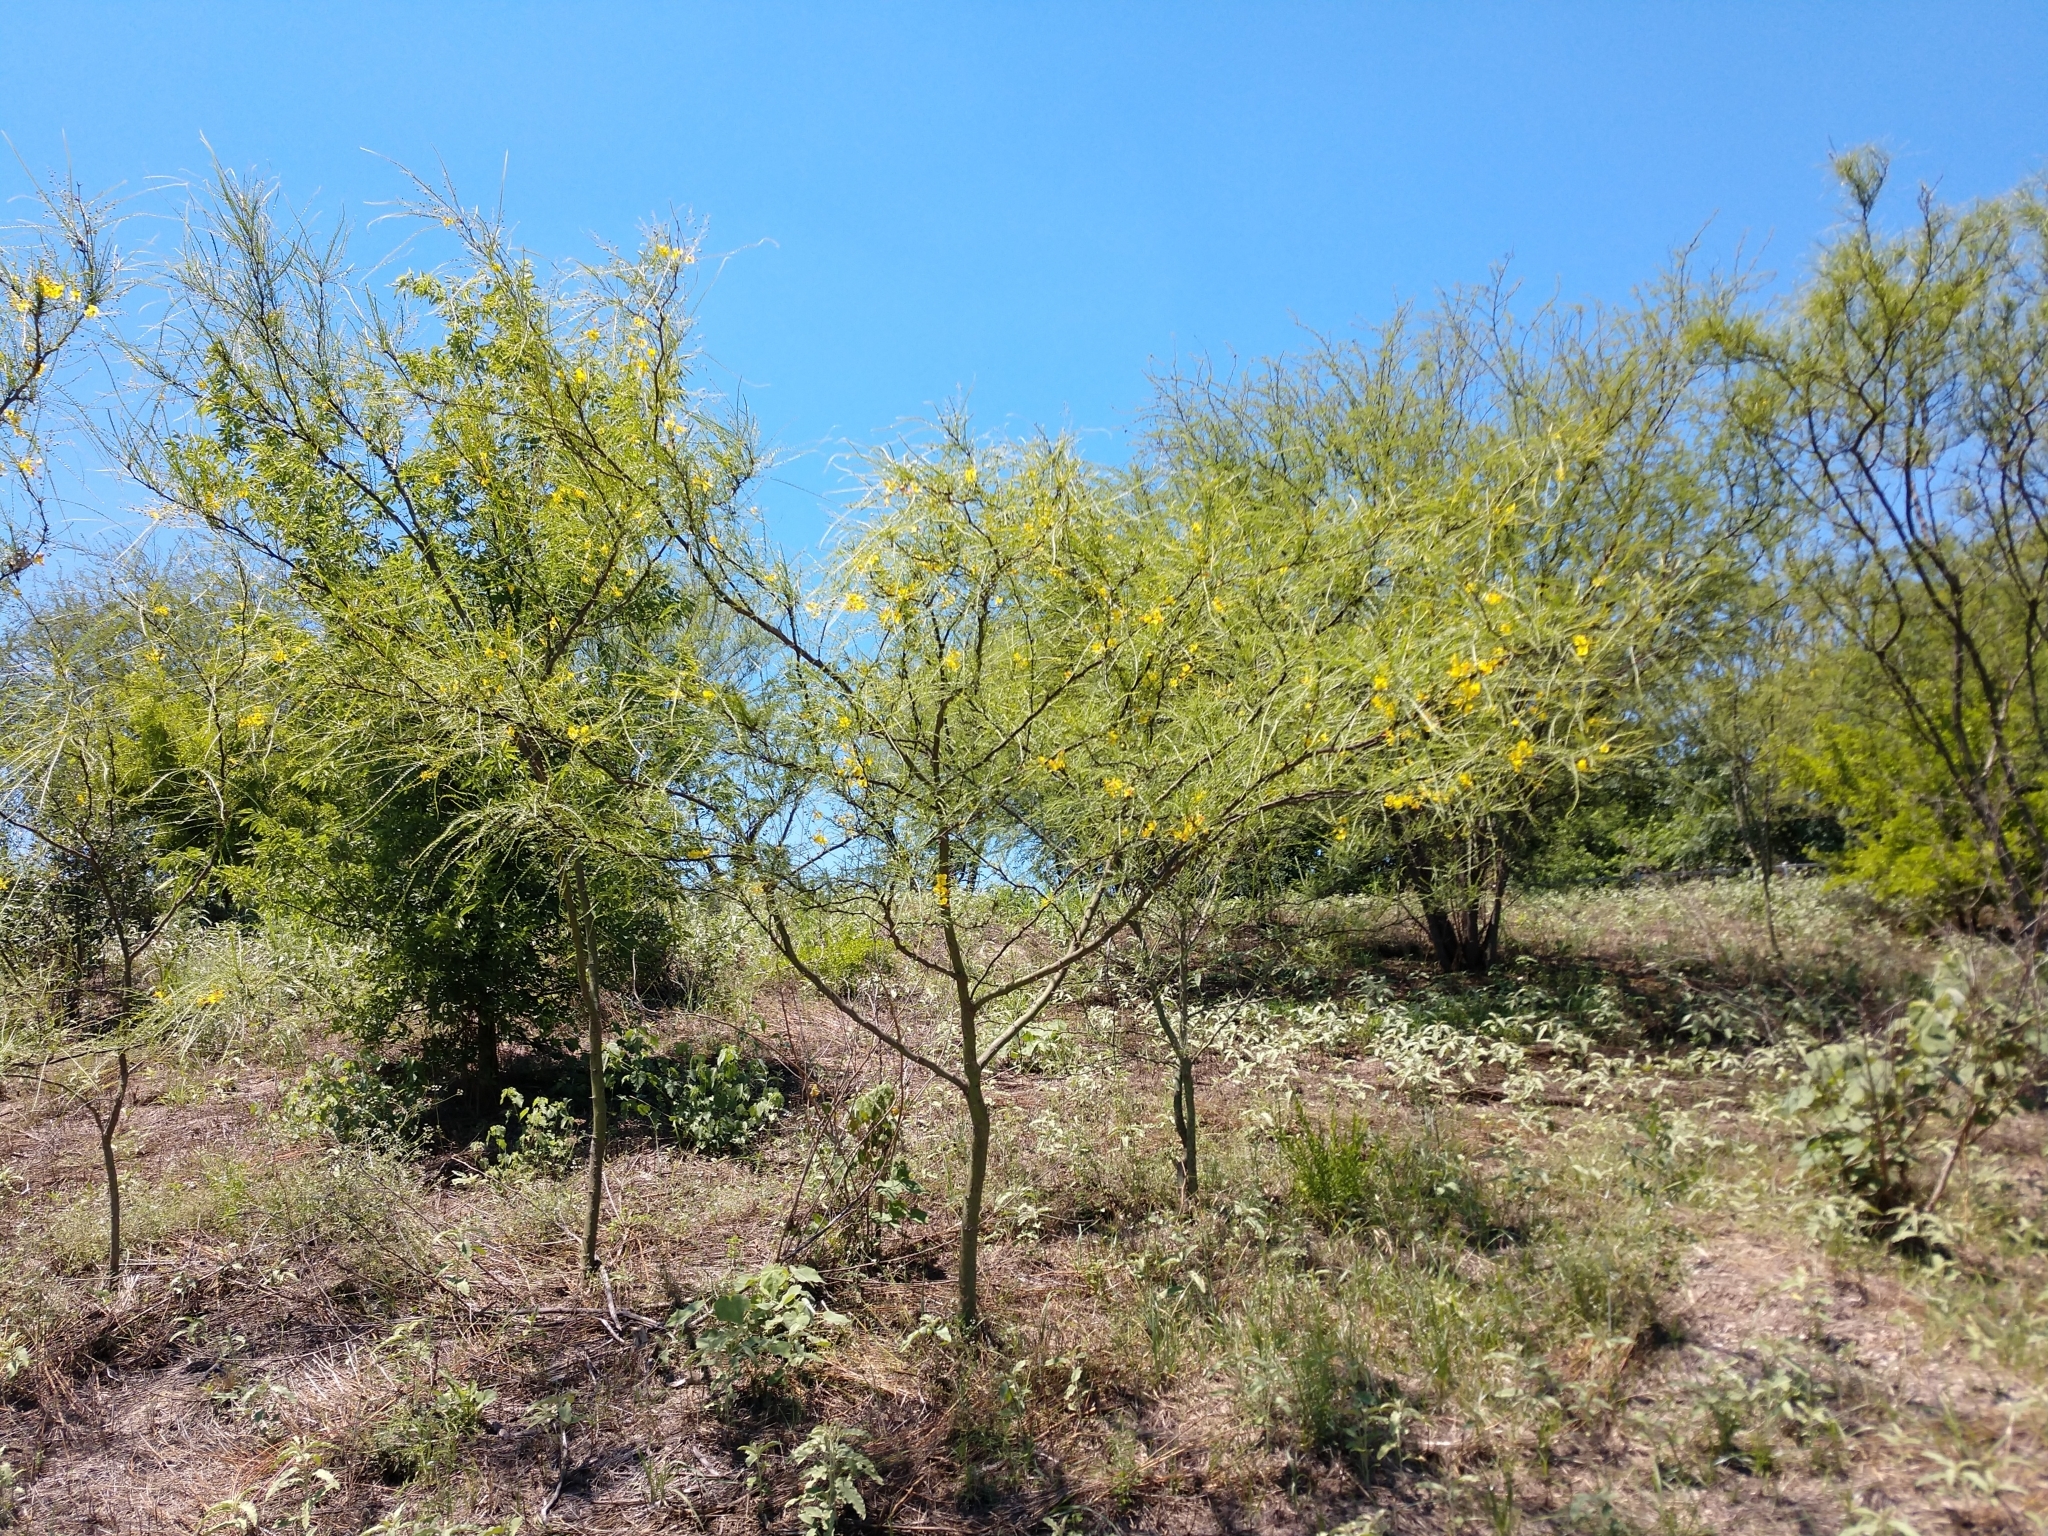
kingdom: Plantae
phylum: Tracheophyta
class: Magnoliopsida
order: Fabales
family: Fabaceae
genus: Parkinsonia
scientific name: Parkinsonia aculeata
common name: Jerusalem thorn
